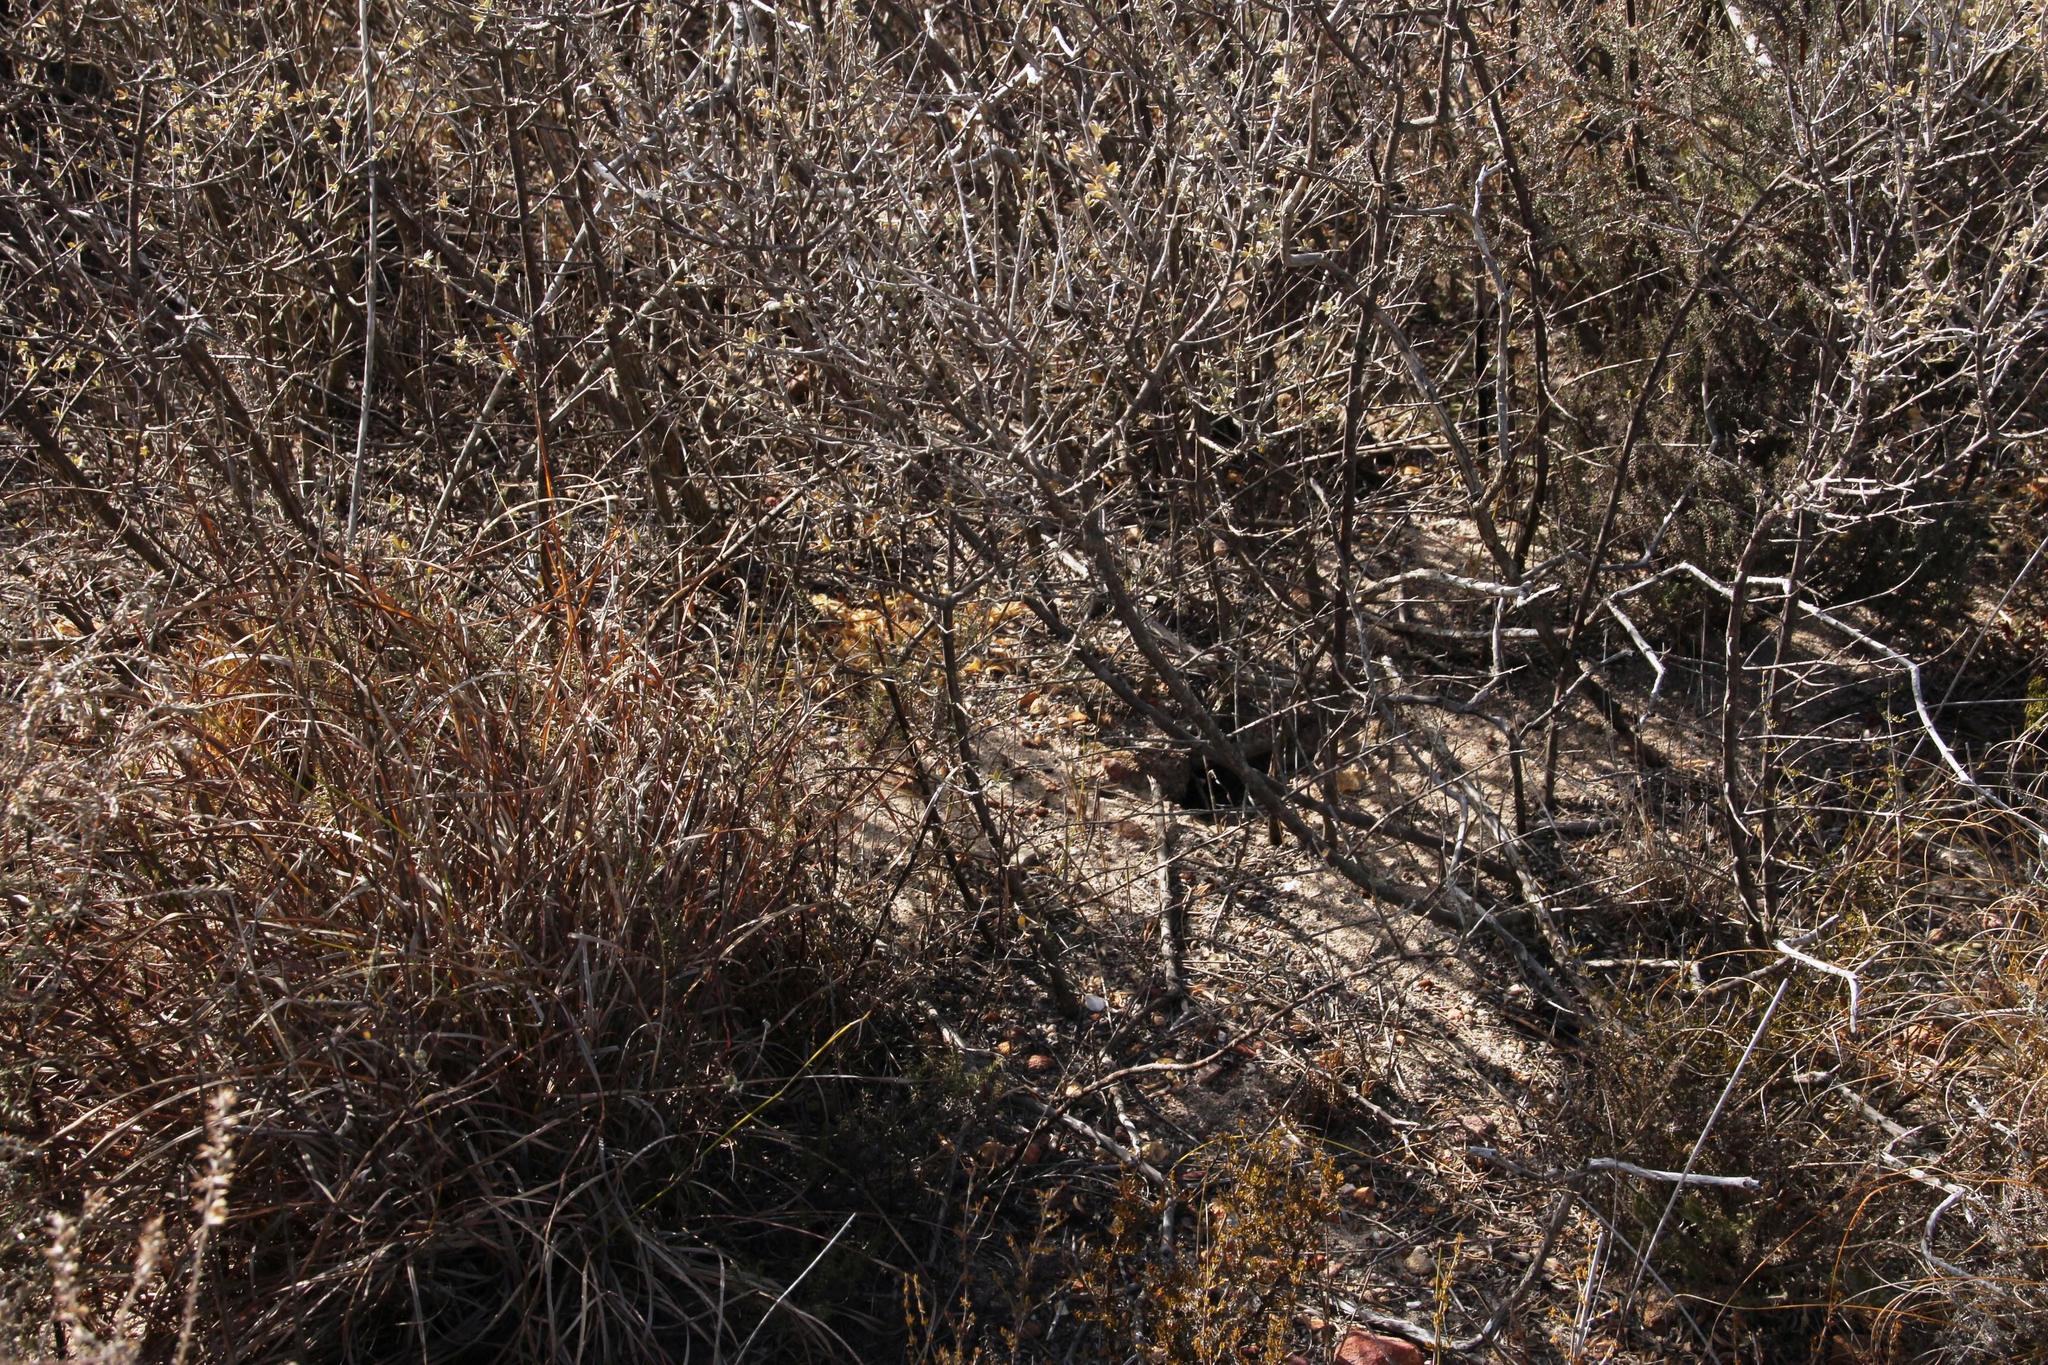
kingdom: Animalia
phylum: Chordata
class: Mammalia
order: Rodentia
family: Muridae
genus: Gerbilliscus
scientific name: Gerbilliscus afer
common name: Cape gerbil
